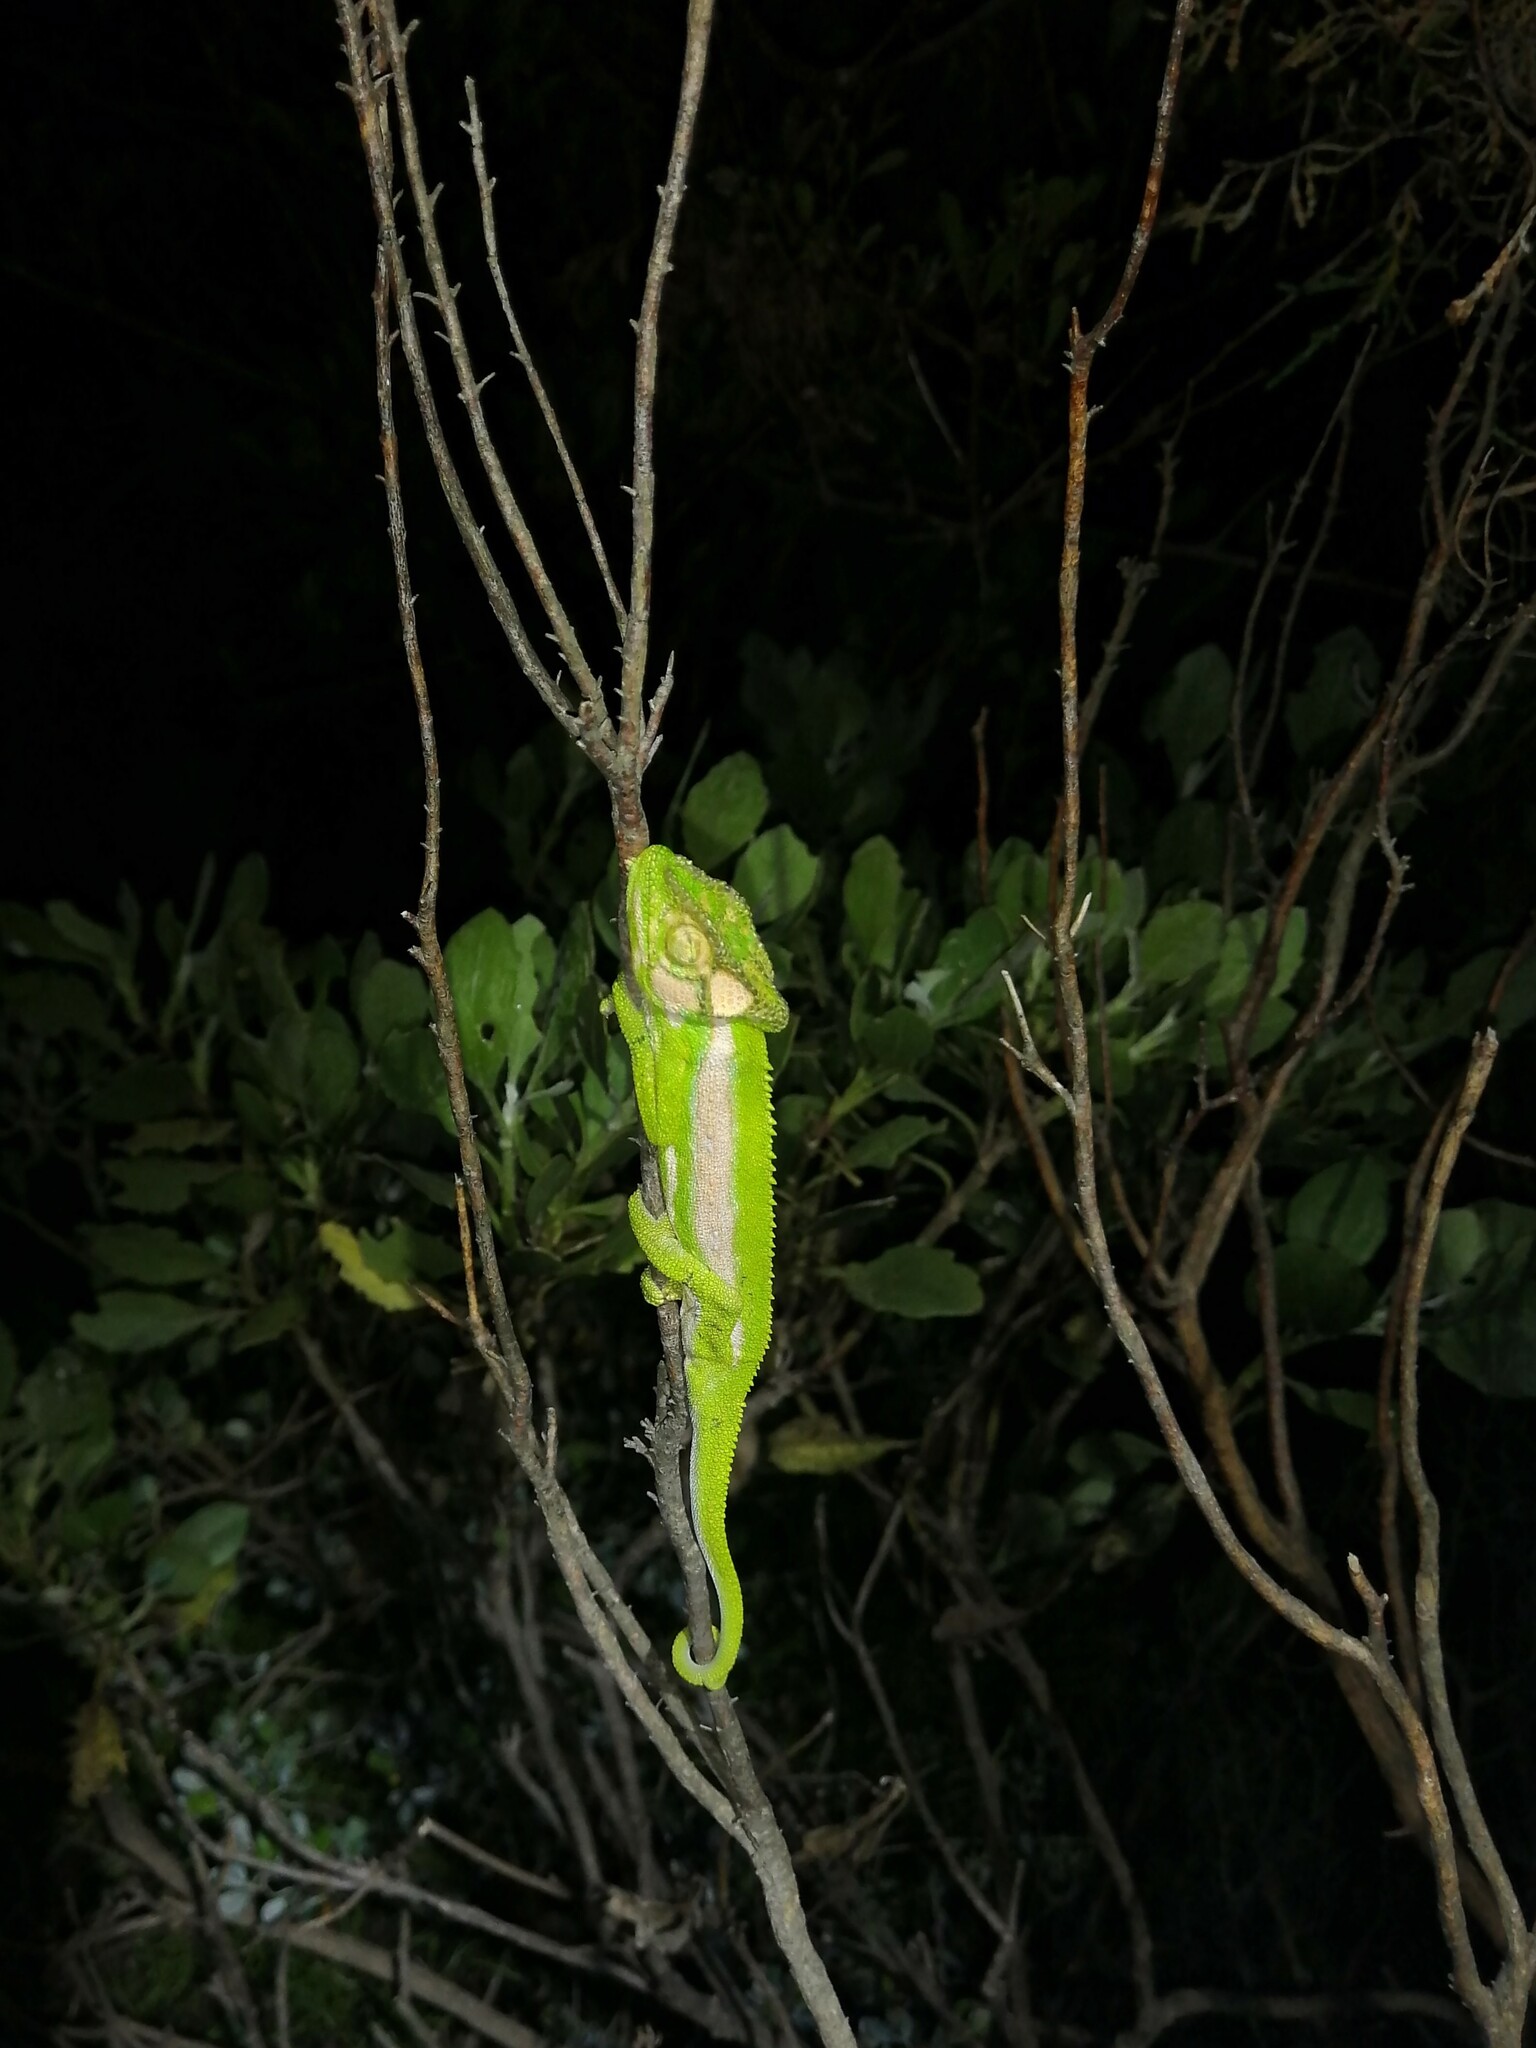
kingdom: Animalia
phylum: Chordata
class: Squamata
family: Chamaeleonidae
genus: Bradypodion
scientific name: Bradypodion pumilum
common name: Cape dwarf chameleon
